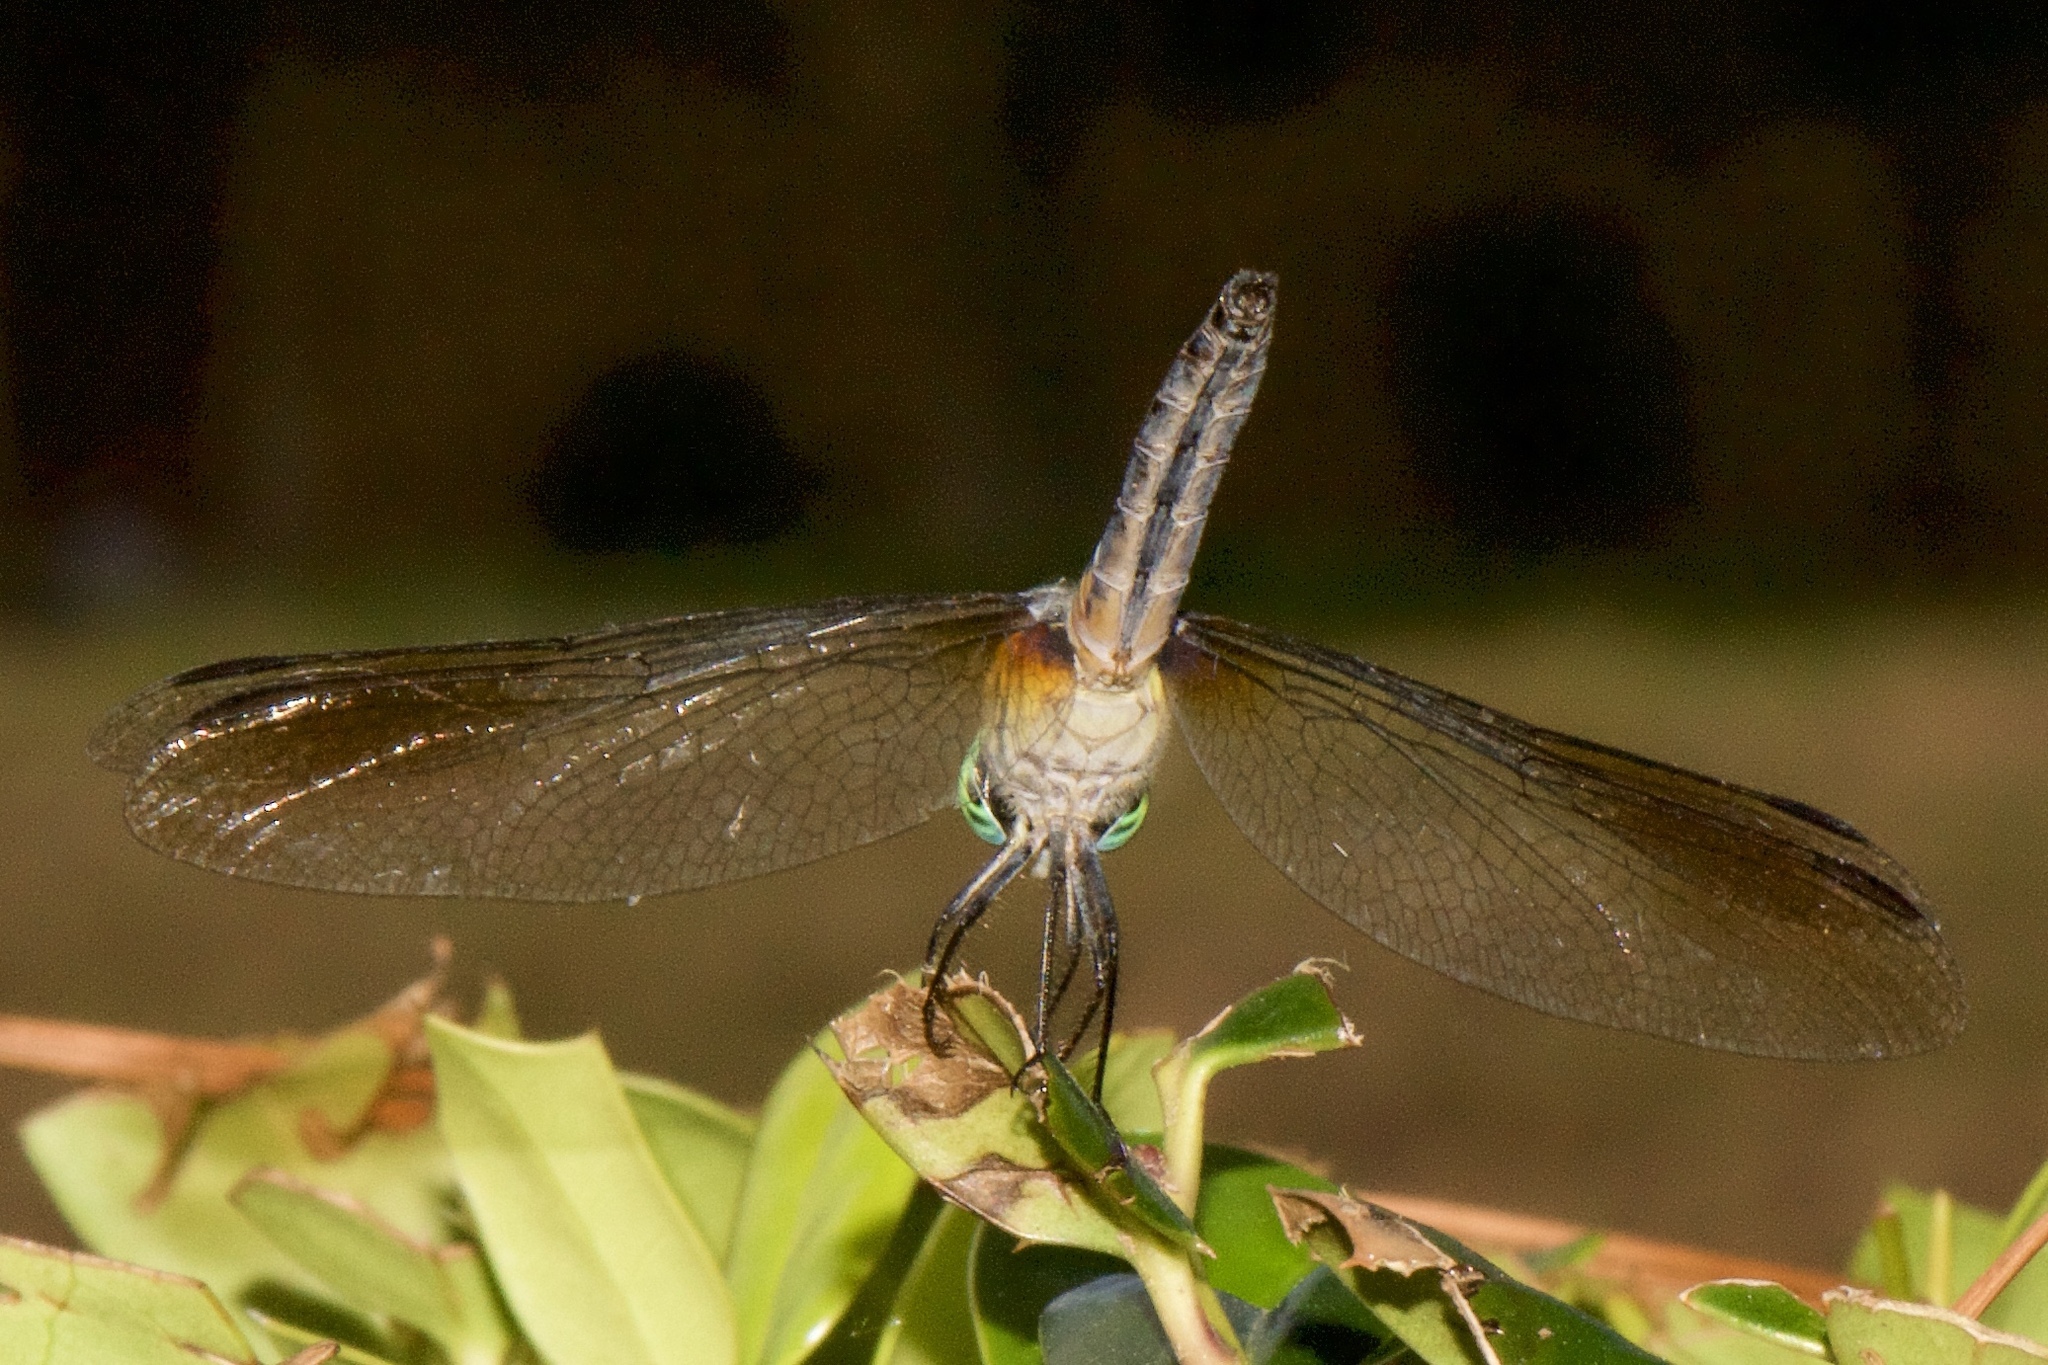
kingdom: Animalia
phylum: Arthropoda
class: Insecta
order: Odonata
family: Libellulidae
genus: Pachydiplax
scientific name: Pachydiplax longipennis
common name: Blue dasher
